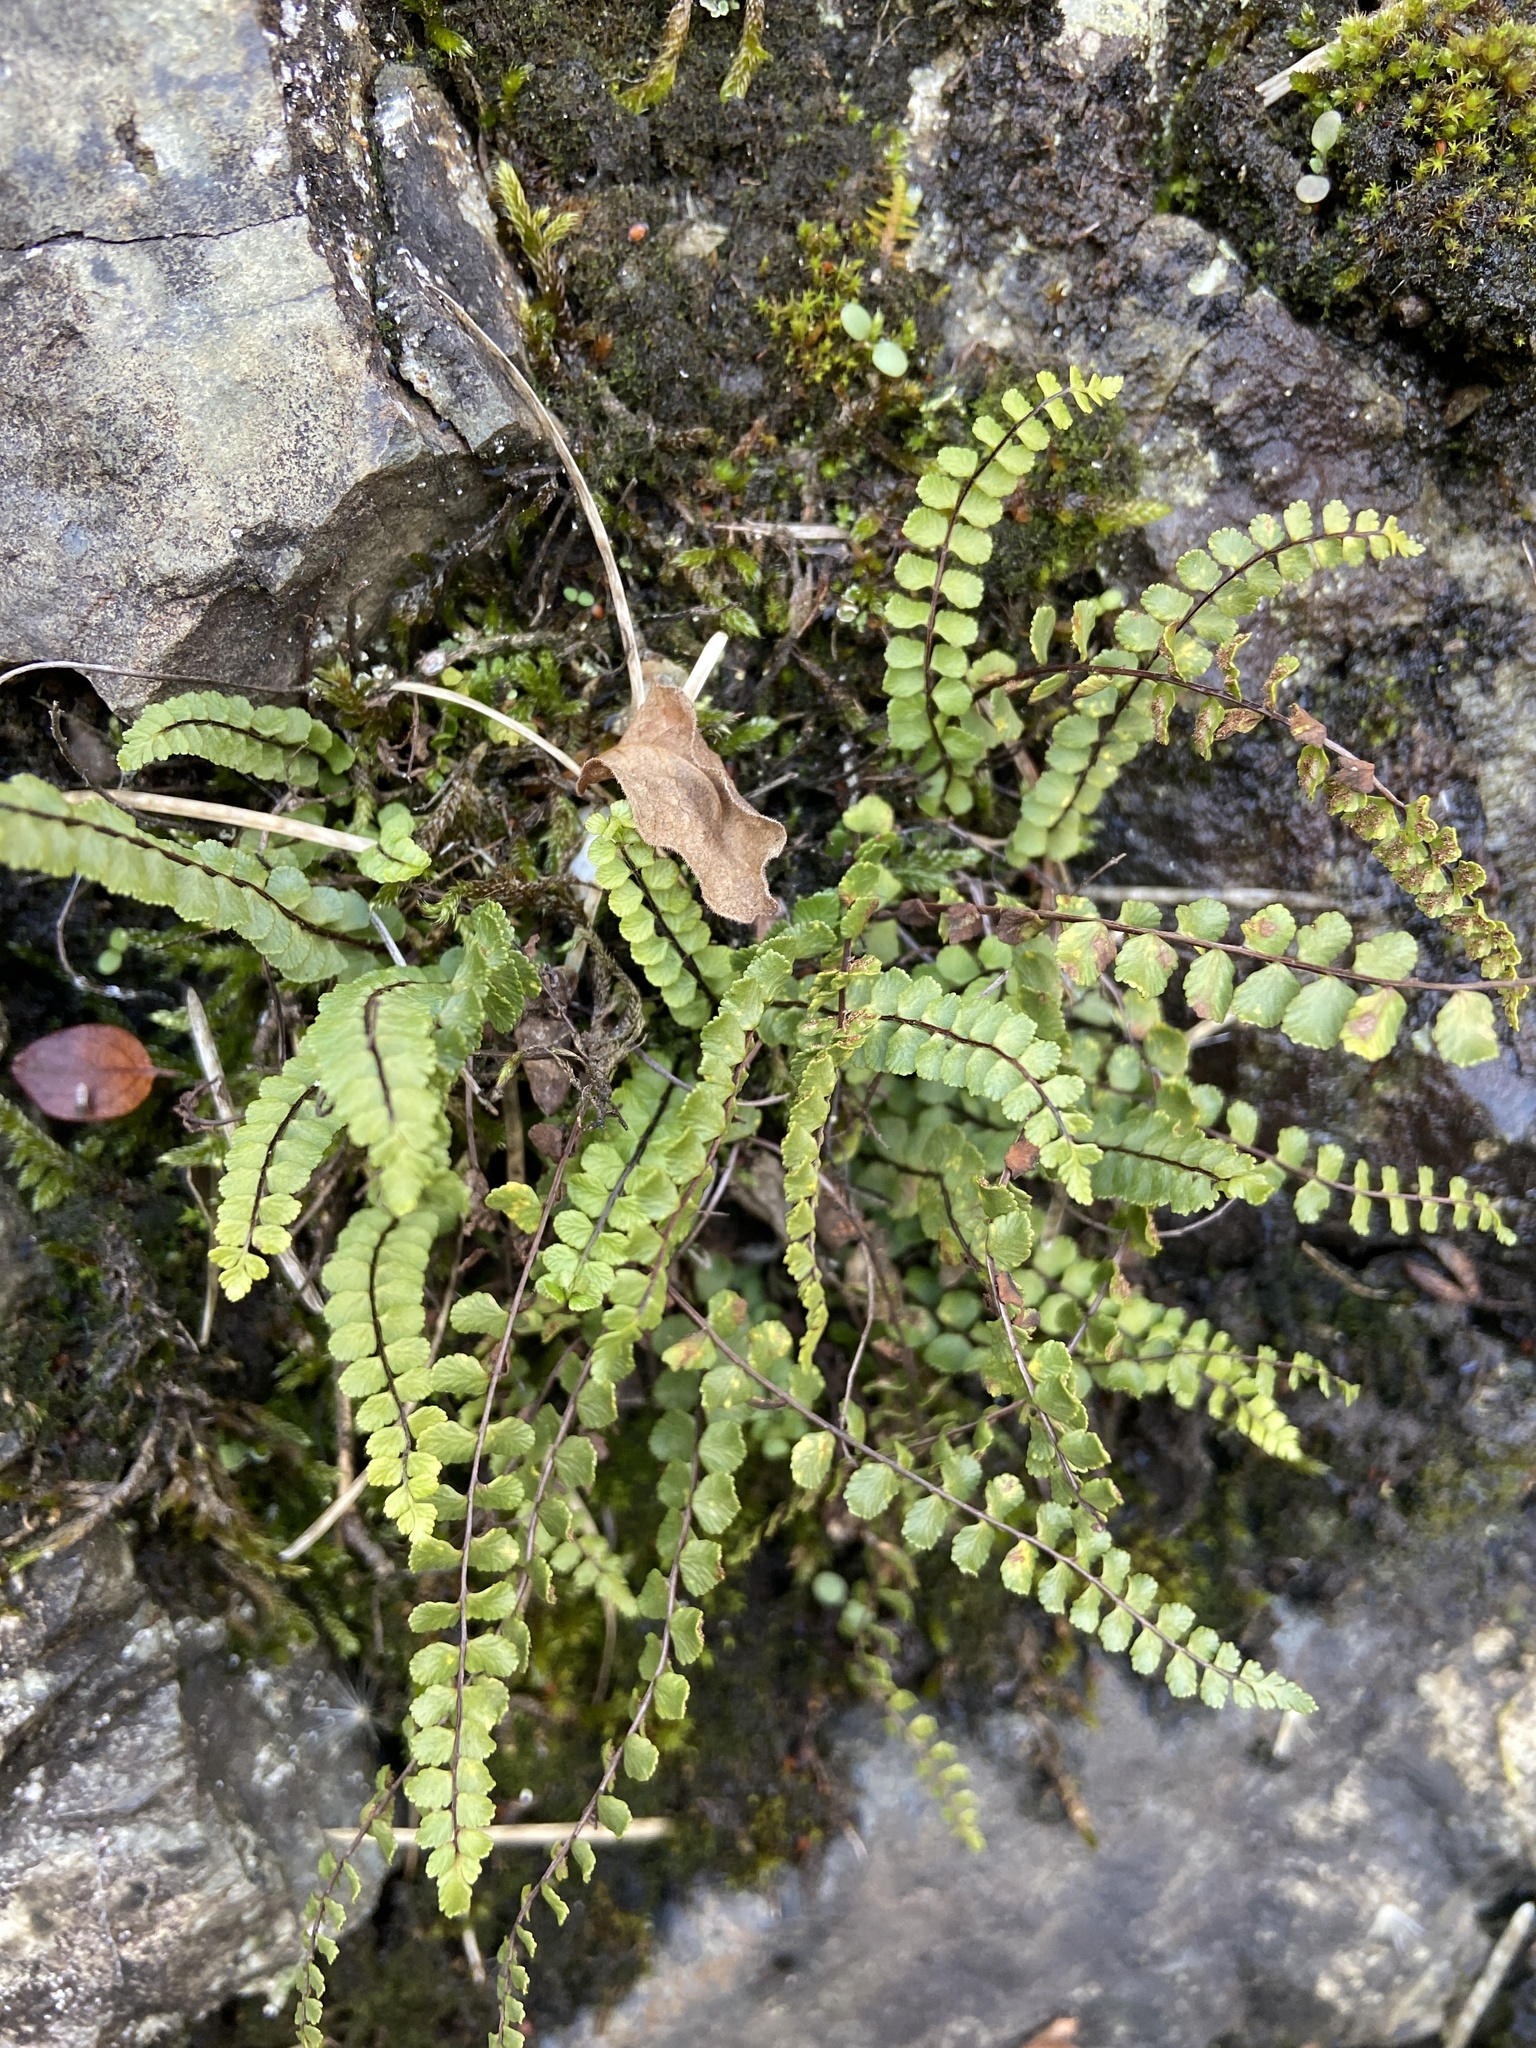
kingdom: Plantae
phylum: Tracheophyta
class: Polypodiopsida
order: Polypodiales
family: Aspleniaceae
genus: Asplenium
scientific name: Asplenium trichomanes
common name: Maidenhair spleenwort
